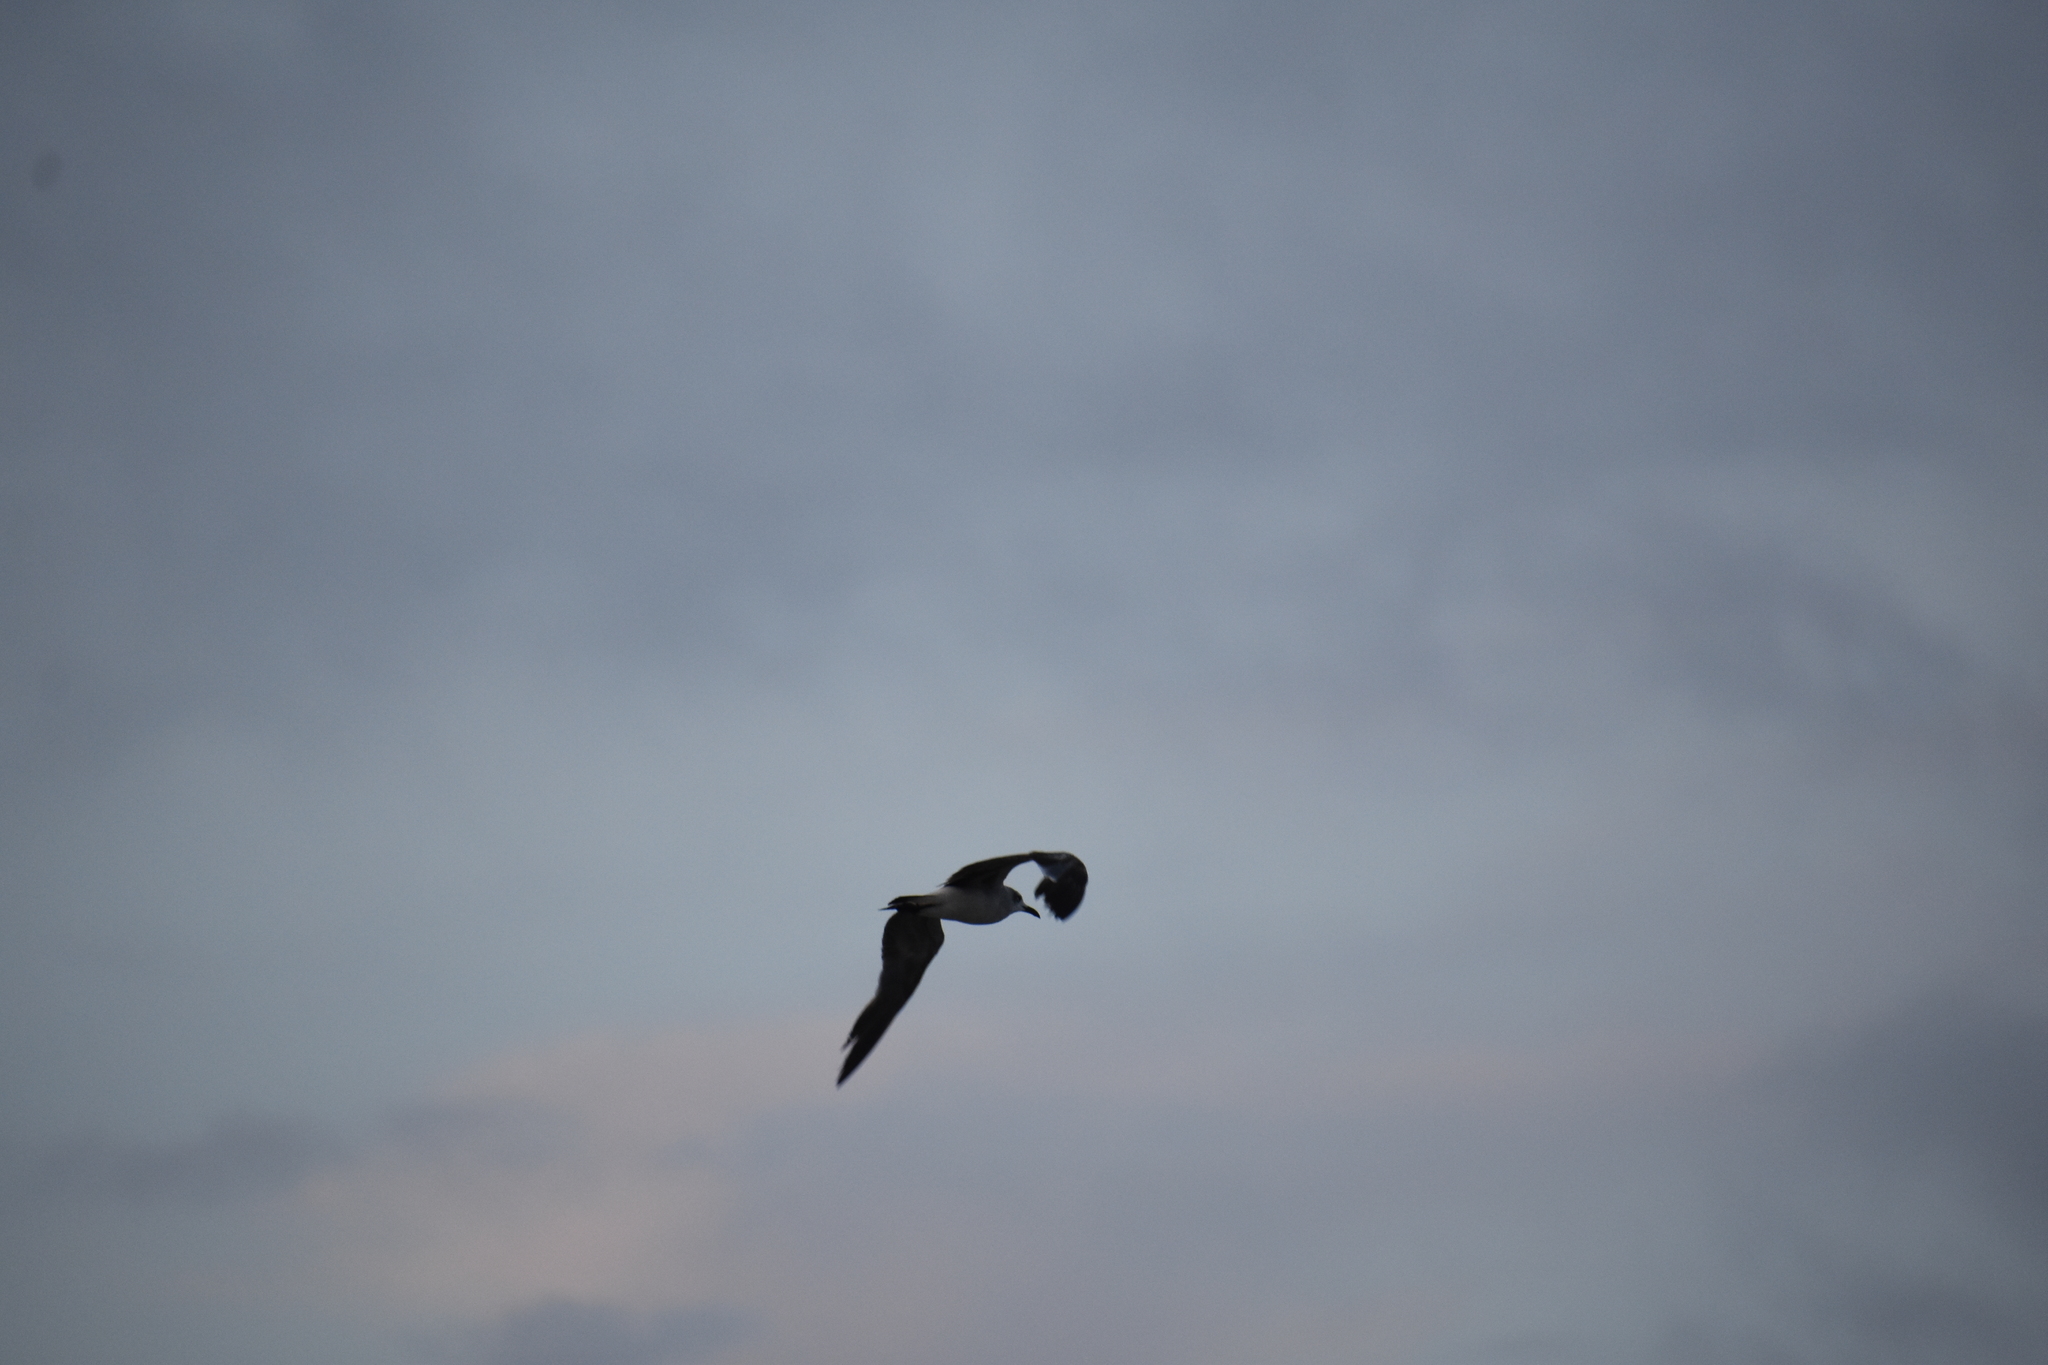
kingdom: Animalia
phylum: Chordata
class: Aves
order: Charadriiformes
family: Laridae
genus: Leucophaeus
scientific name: Leucophaeus atricilla
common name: Laughing gull
